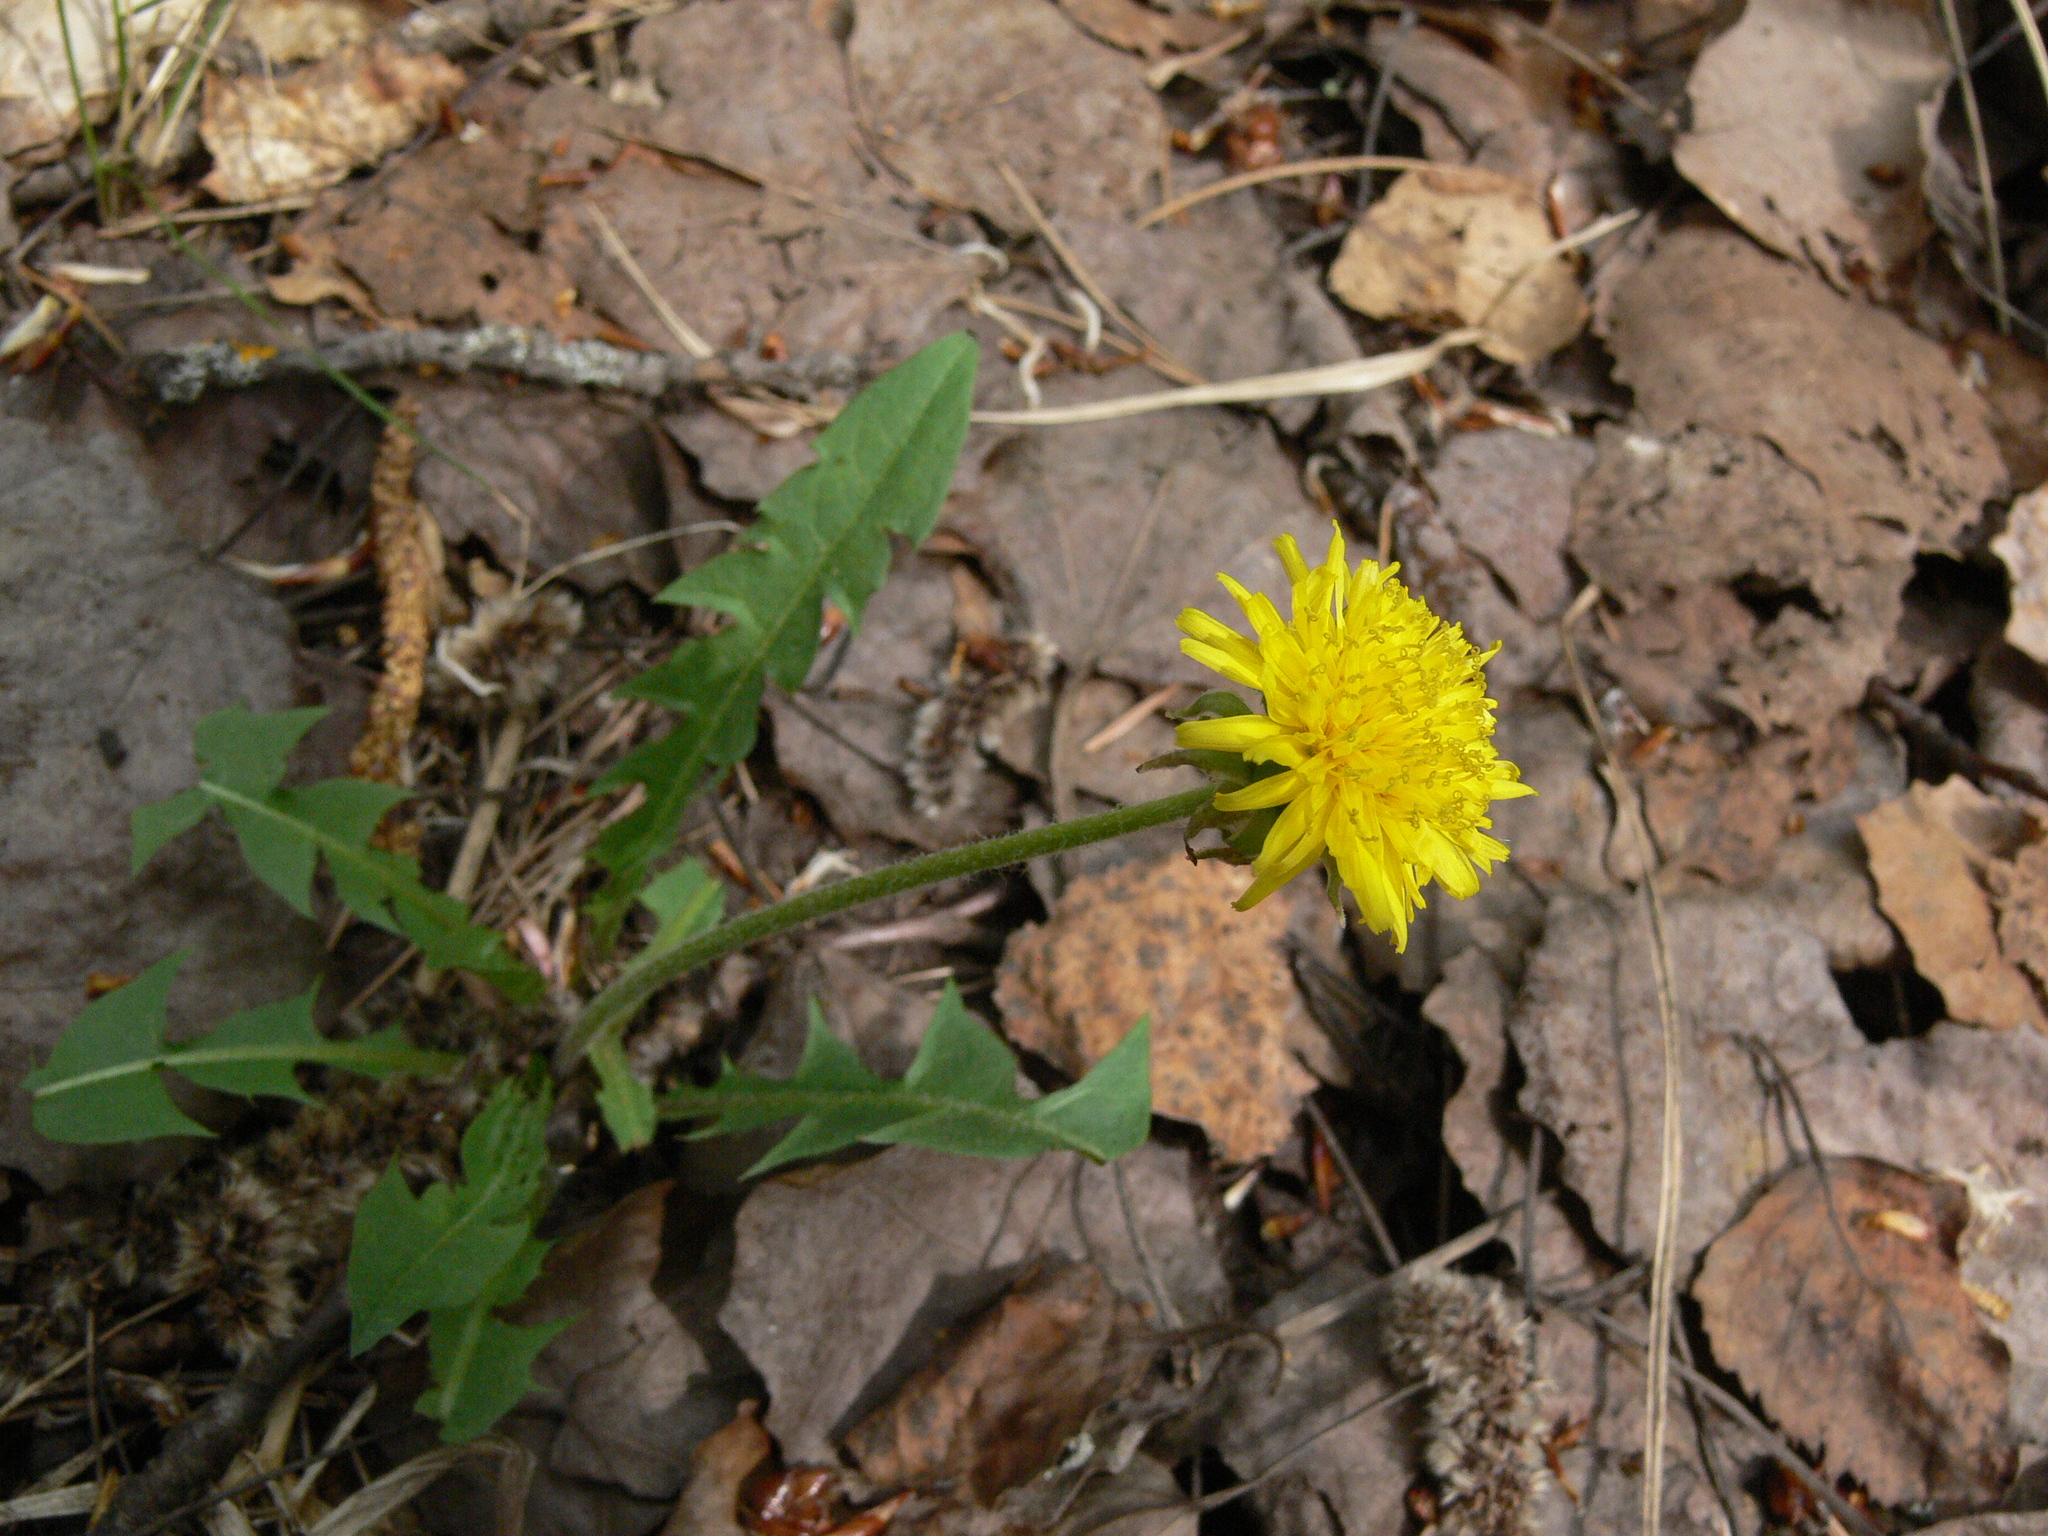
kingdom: Plantae
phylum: Tracheophyta
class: Magnoliopsida
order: Asterales
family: Asteraceae
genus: Taraxacum
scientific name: Taraxacum officinale
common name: Common dandelion
